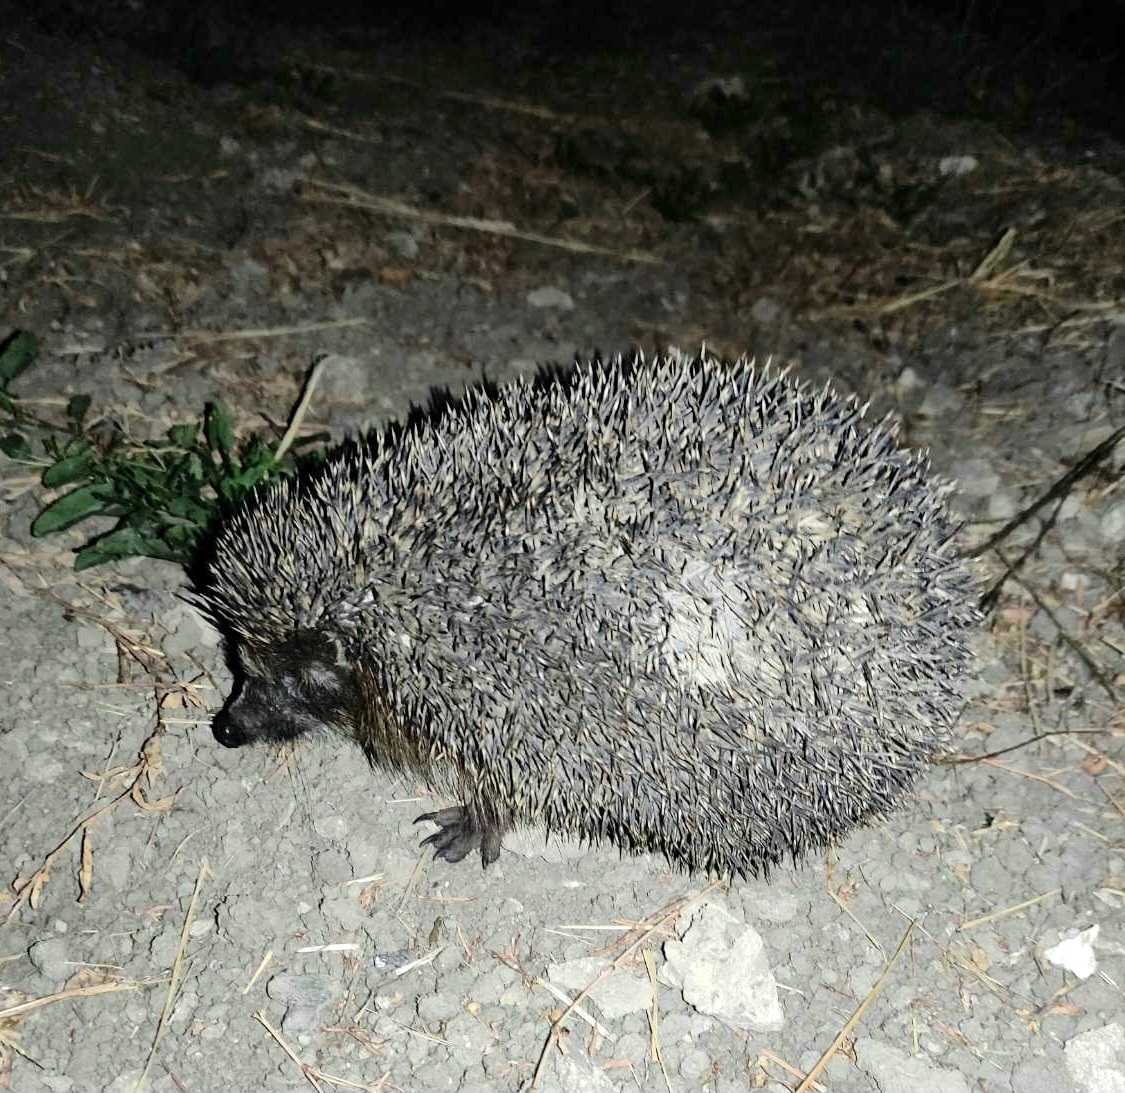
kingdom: Animalia
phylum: Chordata
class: Mammalia
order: Erinaceomorpha
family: Erinaceidae
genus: Erinaceus
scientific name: Erinaceus roumanicus
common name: Northern white-breasted hedgehog
